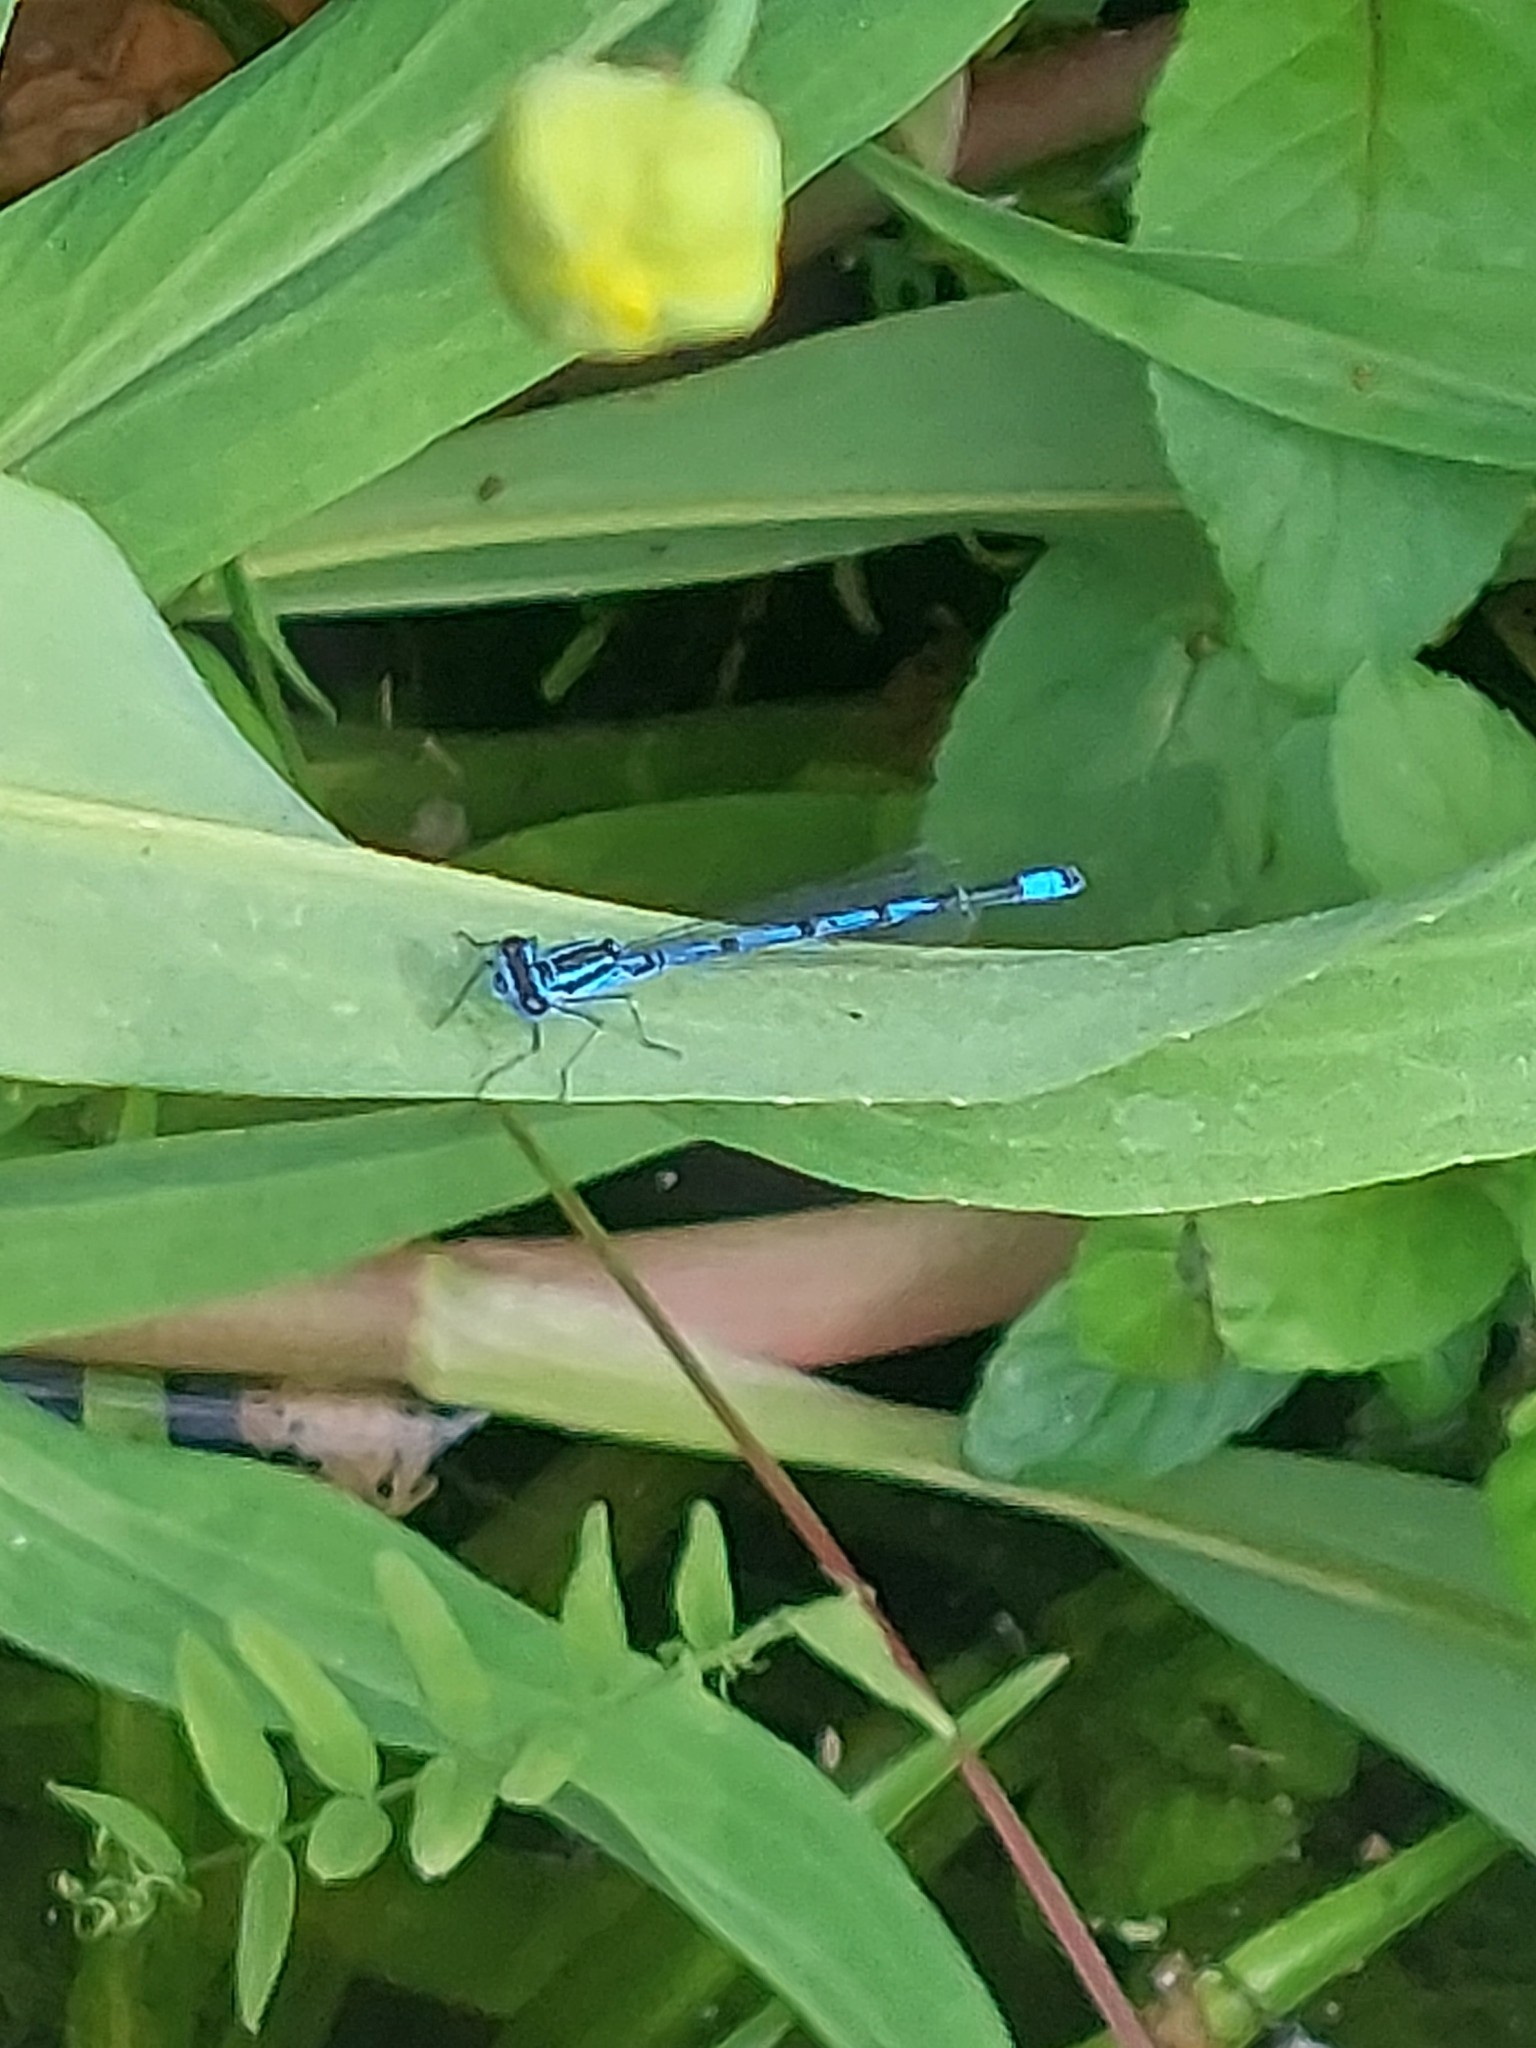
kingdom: Animalia
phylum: Arthropoda
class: Insecta
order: Odonata
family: Coenagrionidae
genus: Coenagrion
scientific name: Coenagrion puella
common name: Azure damselfly
